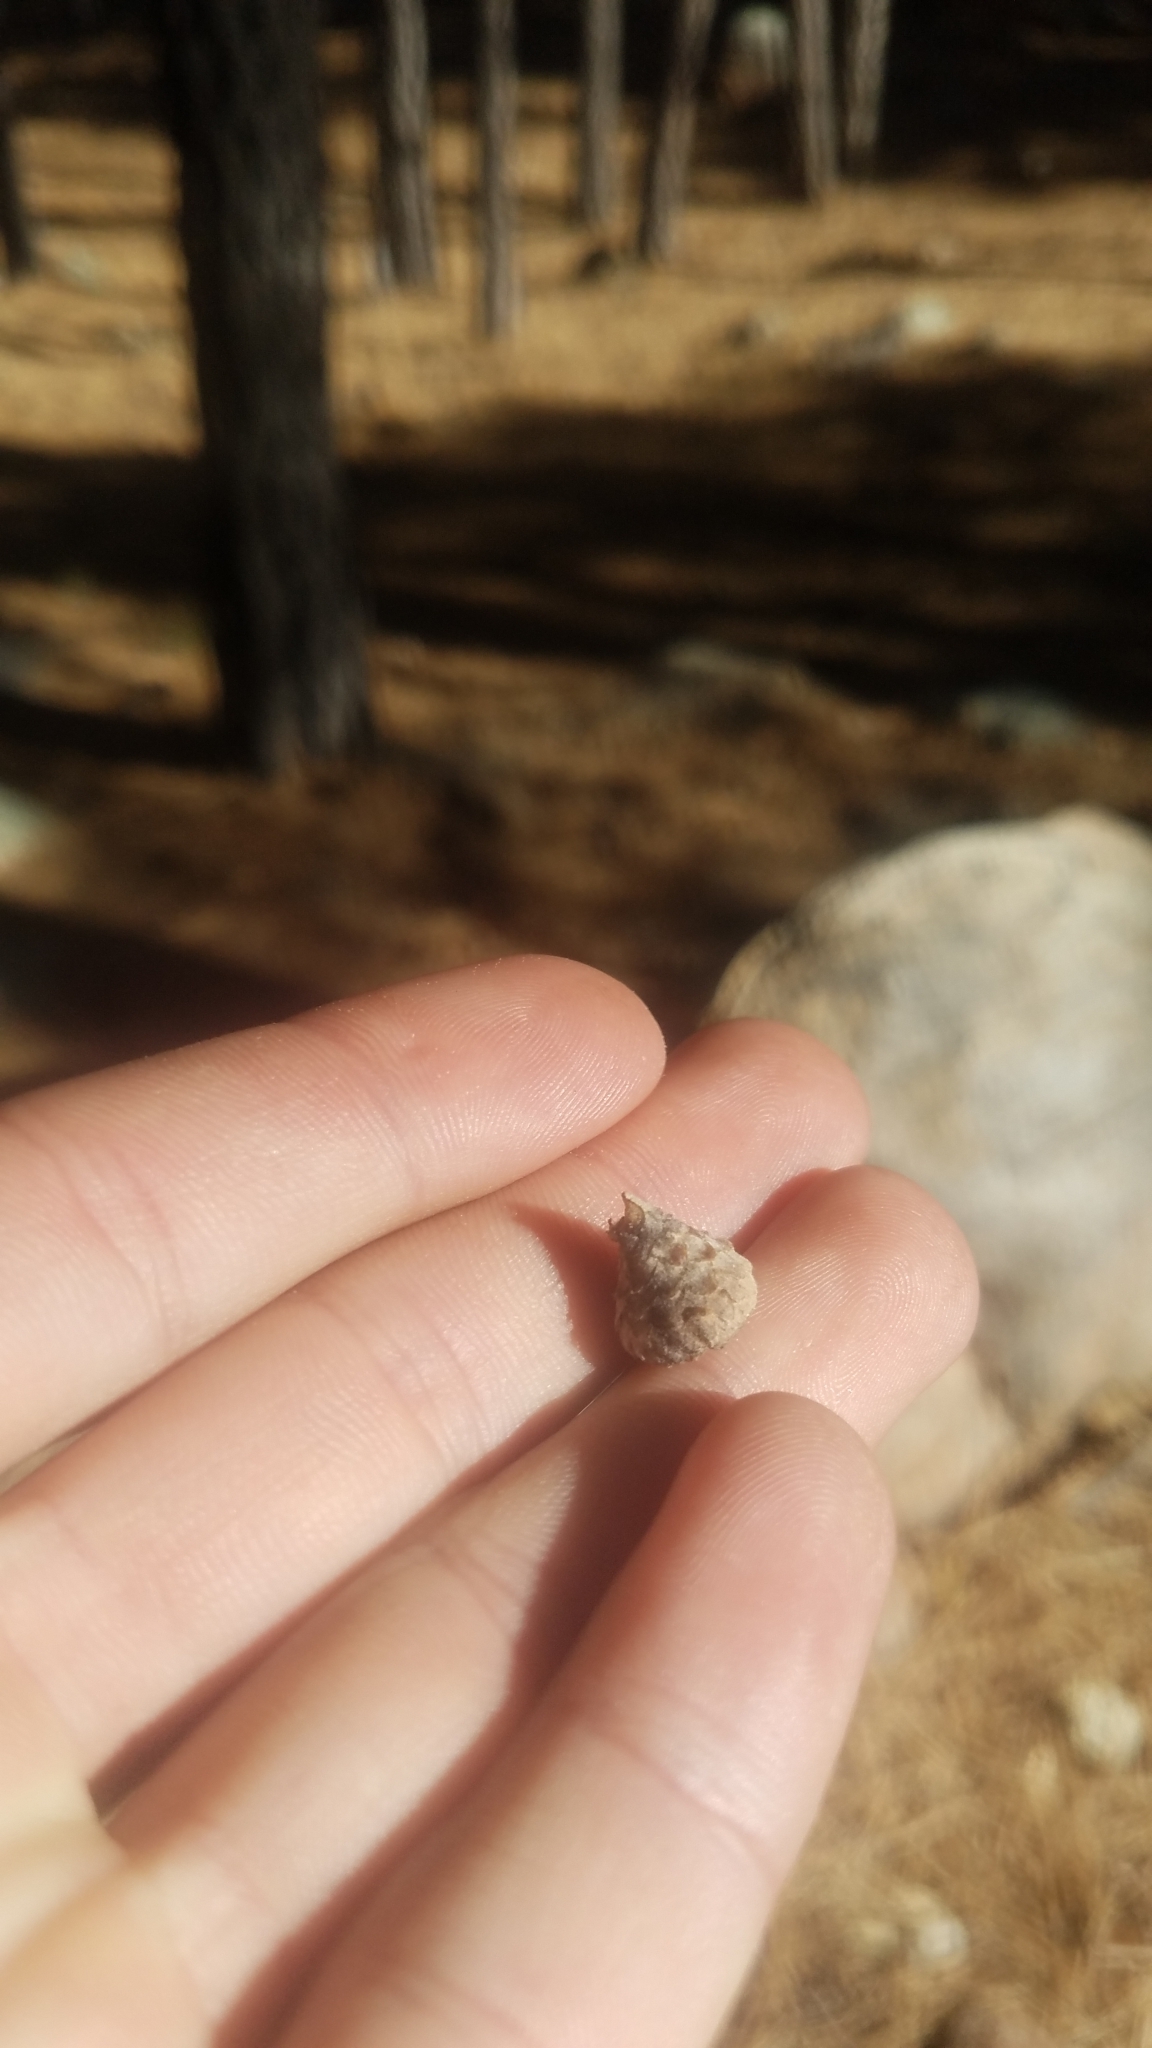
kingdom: Plantae
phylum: Tracheophyta
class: Magnoliopsida
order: Fagales
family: Fagaceae
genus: Quercus
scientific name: Quercus hypoleucoides
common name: Silverleaf oak
